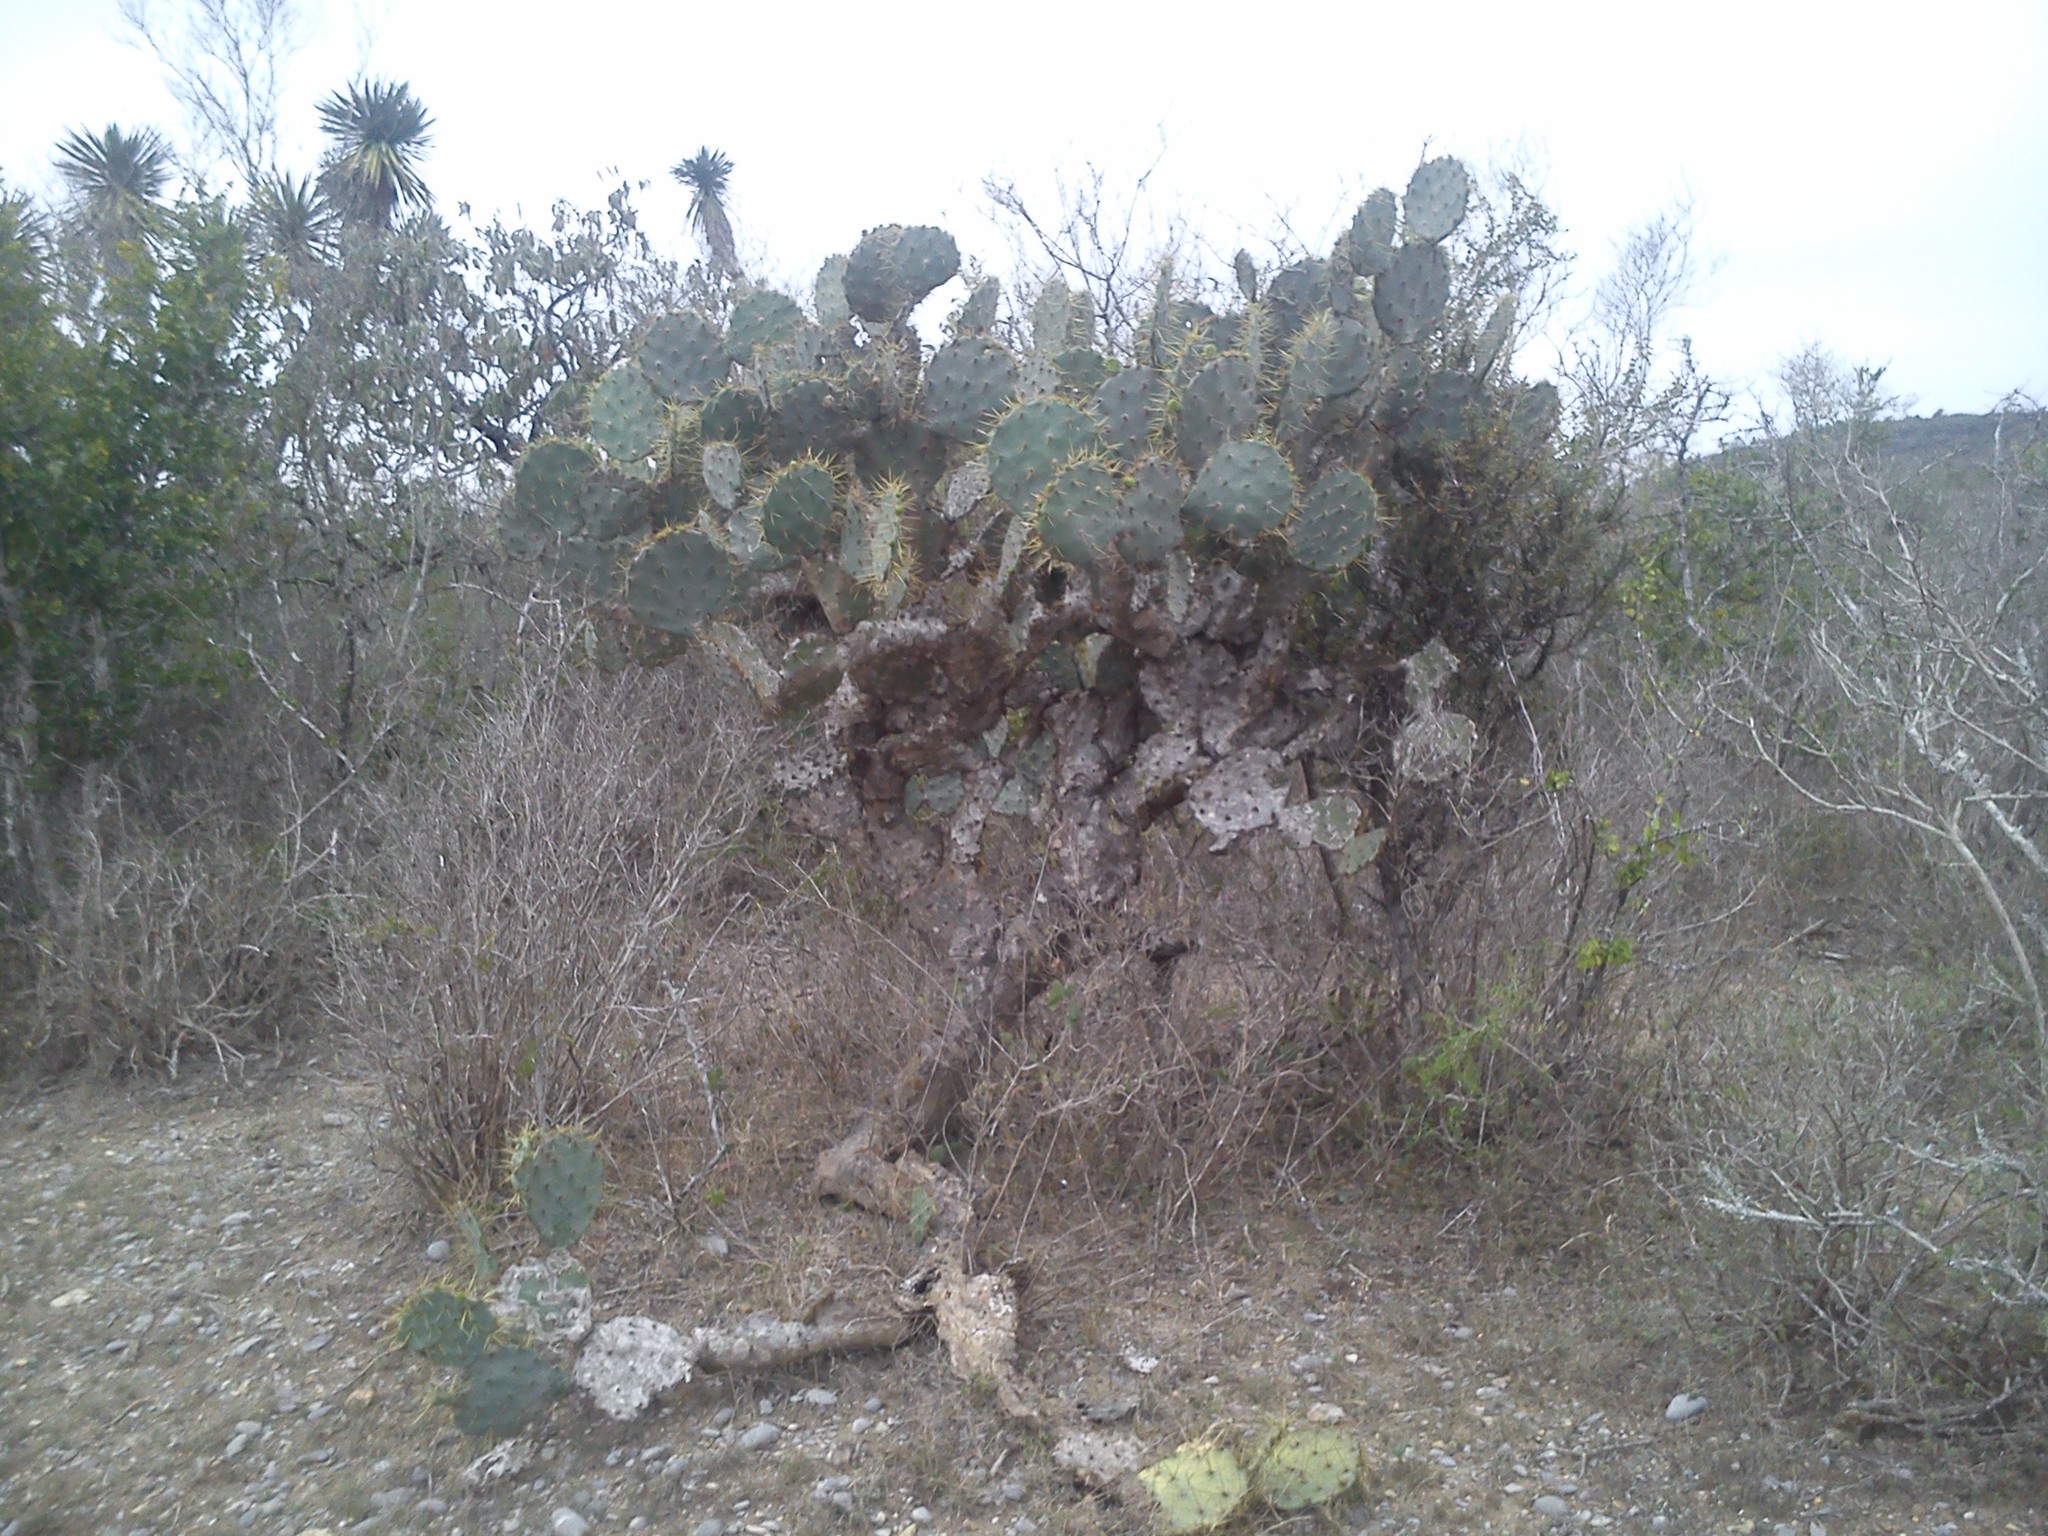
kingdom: Plantae
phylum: Tracheophyta
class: Magnoliopsida
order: Caryophyllales
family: Cactaceae
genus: Opuntia
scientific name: Opuntia engelmannii
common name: Cactus-apple
